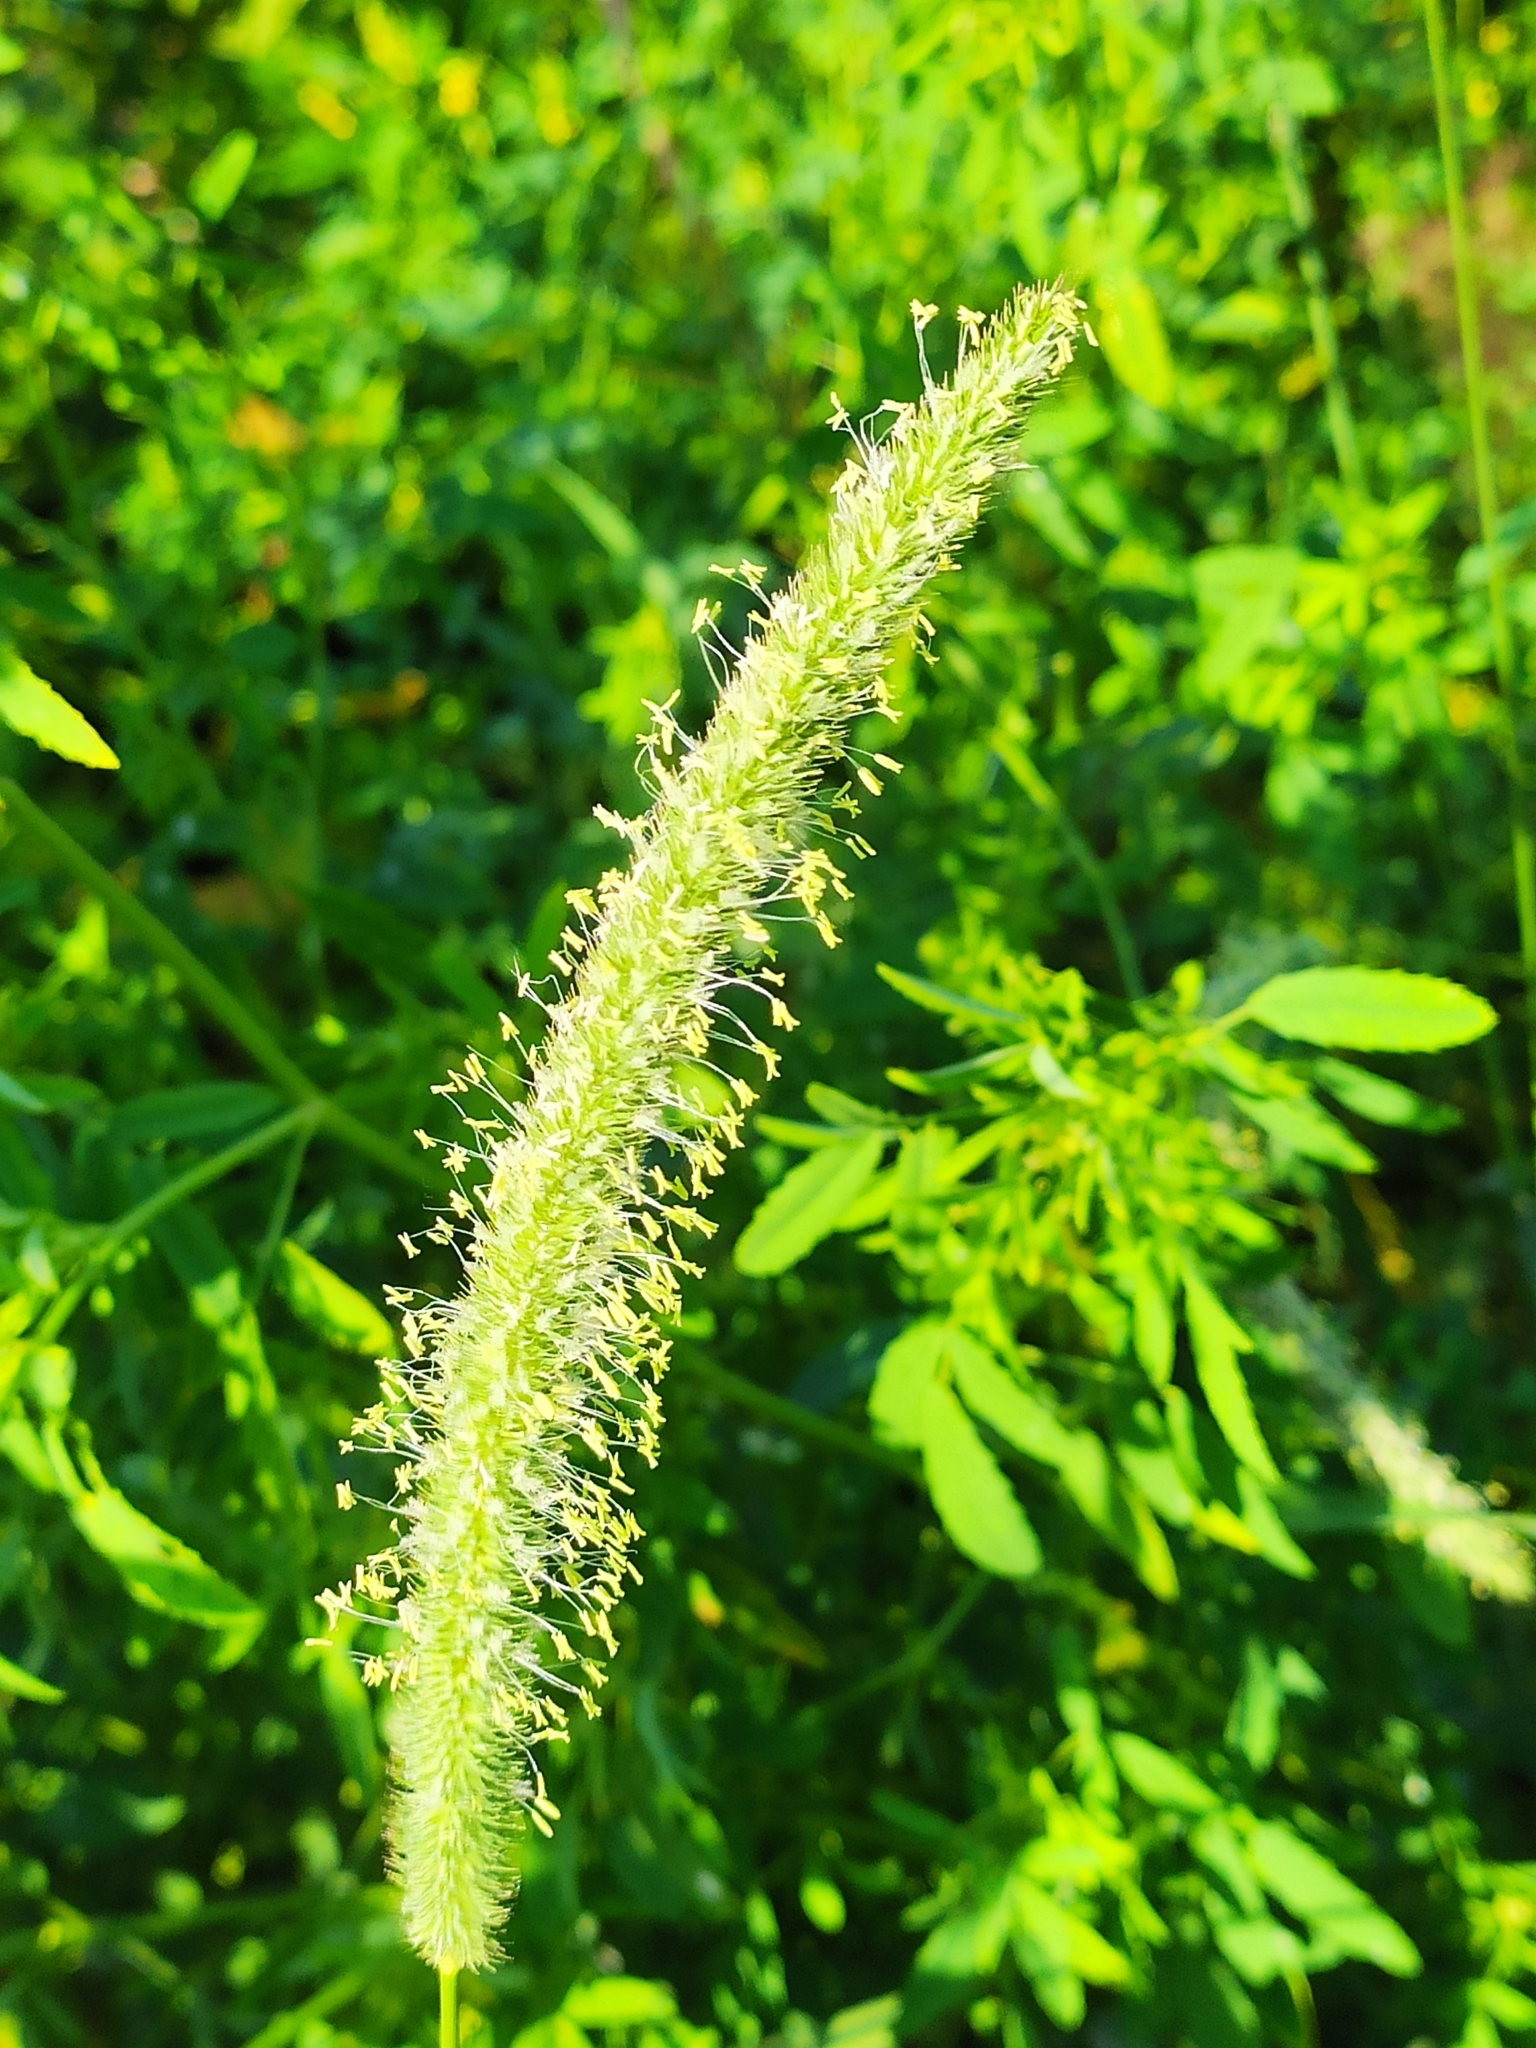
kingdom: Plantae
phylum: Tracheophyta
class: Liliopsida
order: Poales
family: Poaceae
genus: Phleum
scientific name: Phleum pratense
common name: Timothy grass
